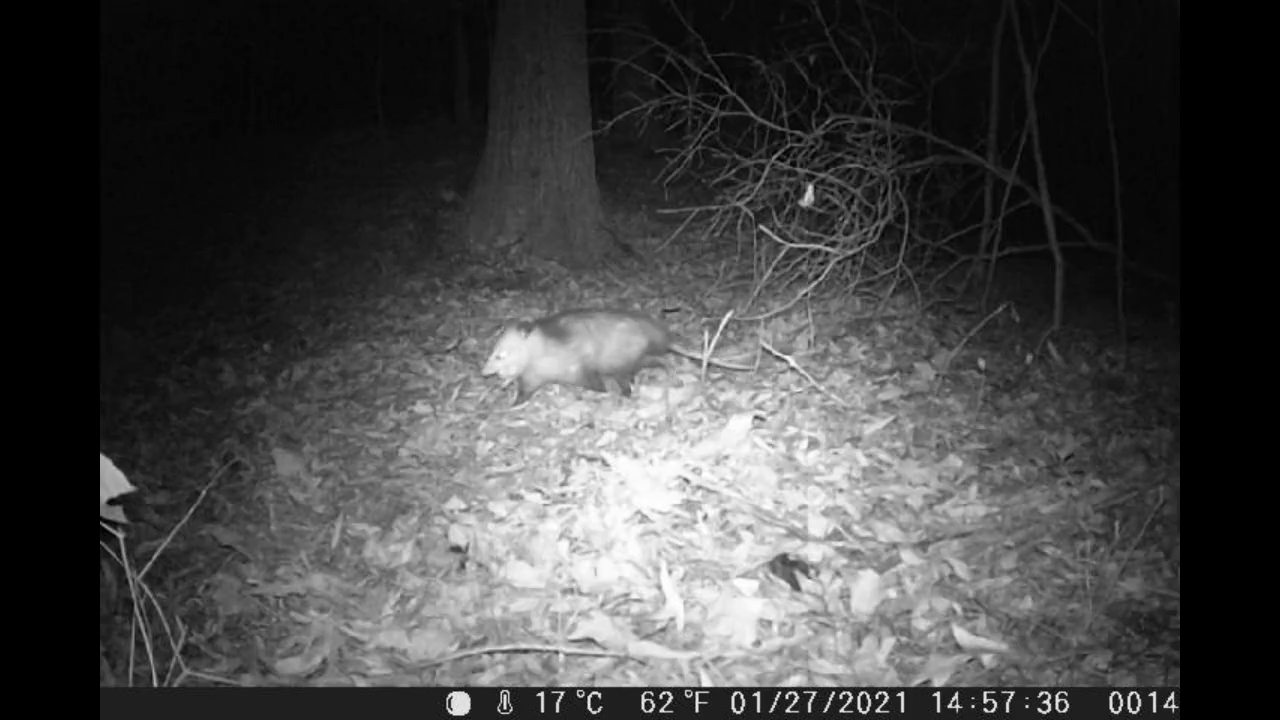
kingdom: Animalia
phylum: Chordata
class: Mammalia
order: Didelphimorphia
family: Didelphidae
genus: Didelphis
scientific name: Didelphis virginiana
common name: Virginia opossum
